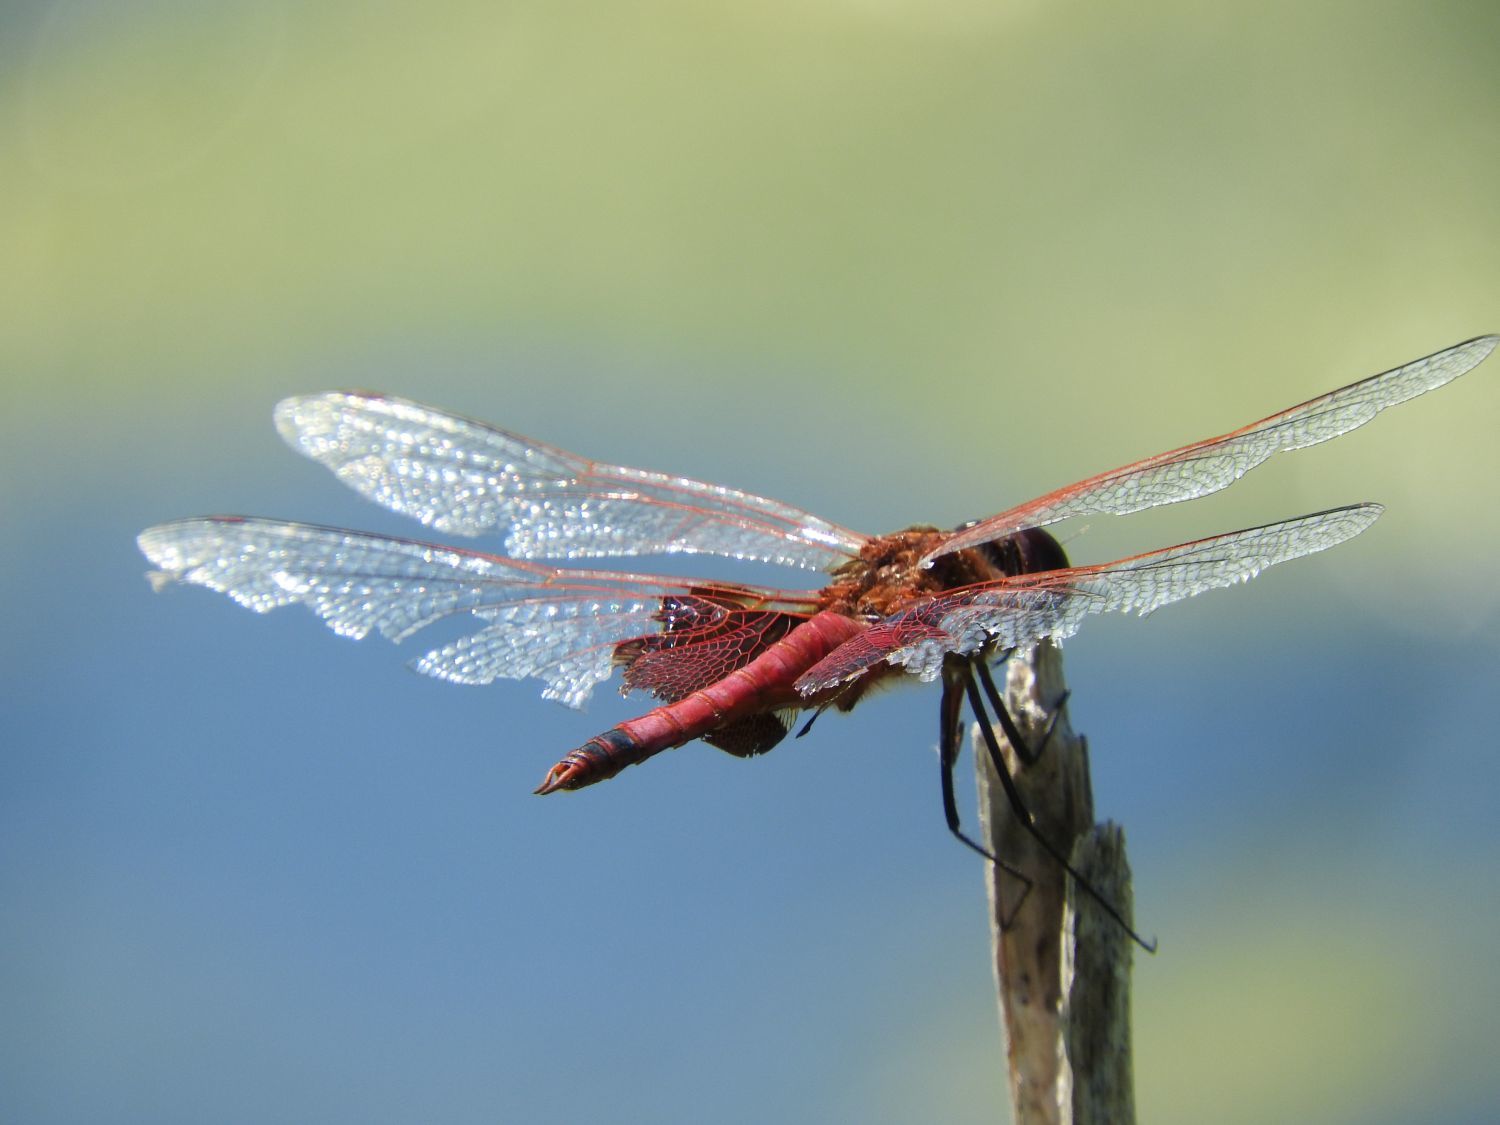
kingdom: Animalia
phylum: Arthropoda
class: Insecta
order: Odonata
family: Libellulidae
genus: Tramea
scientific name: Tramea carolina
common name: Carolina saddlebags
